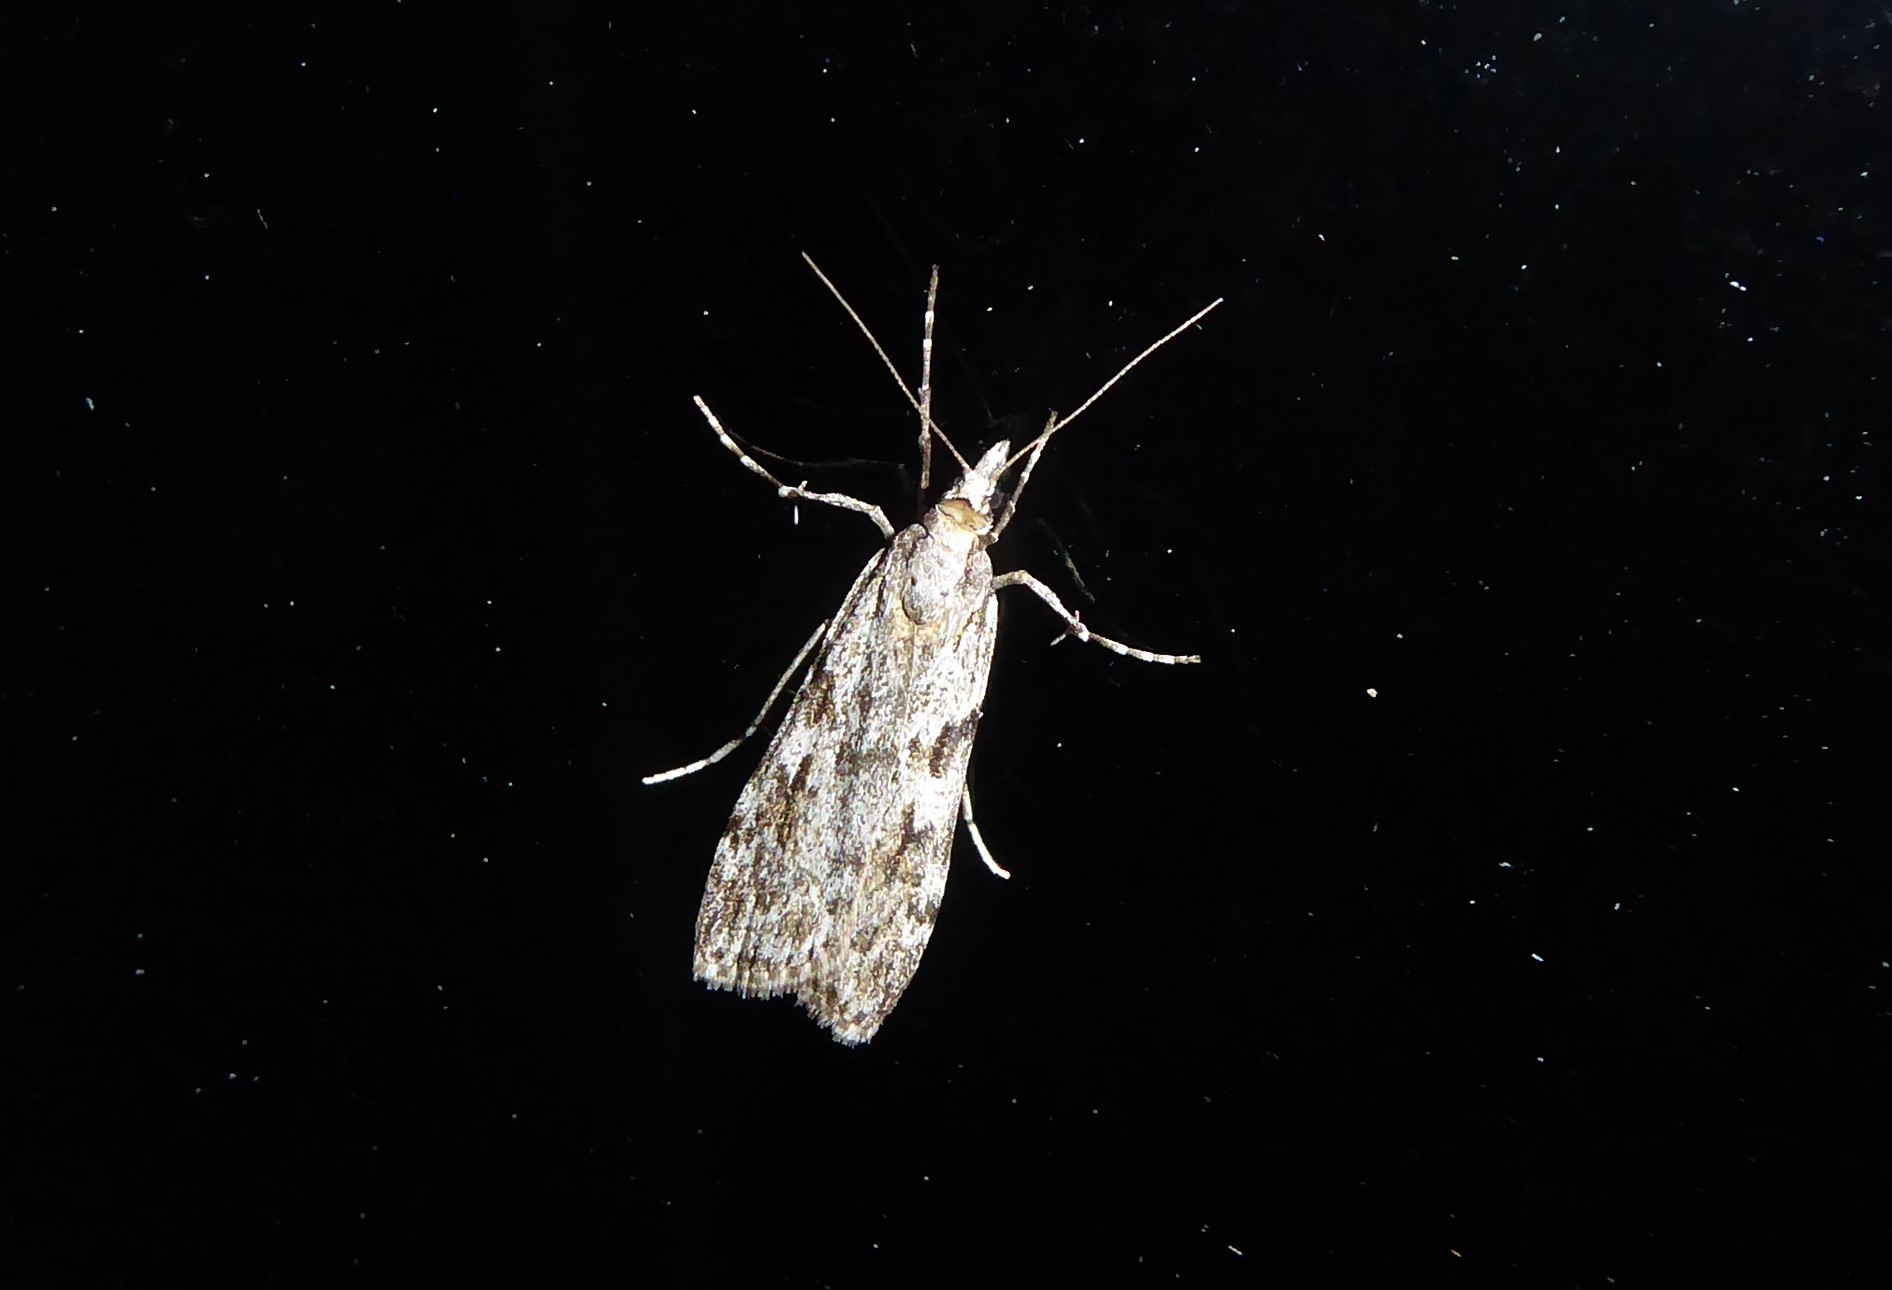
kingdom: Animalia
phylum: Arthropoda
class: Insecta
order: Lepidoptera
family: Crambidae
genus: Scoparia
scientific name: Scoparia halopis
